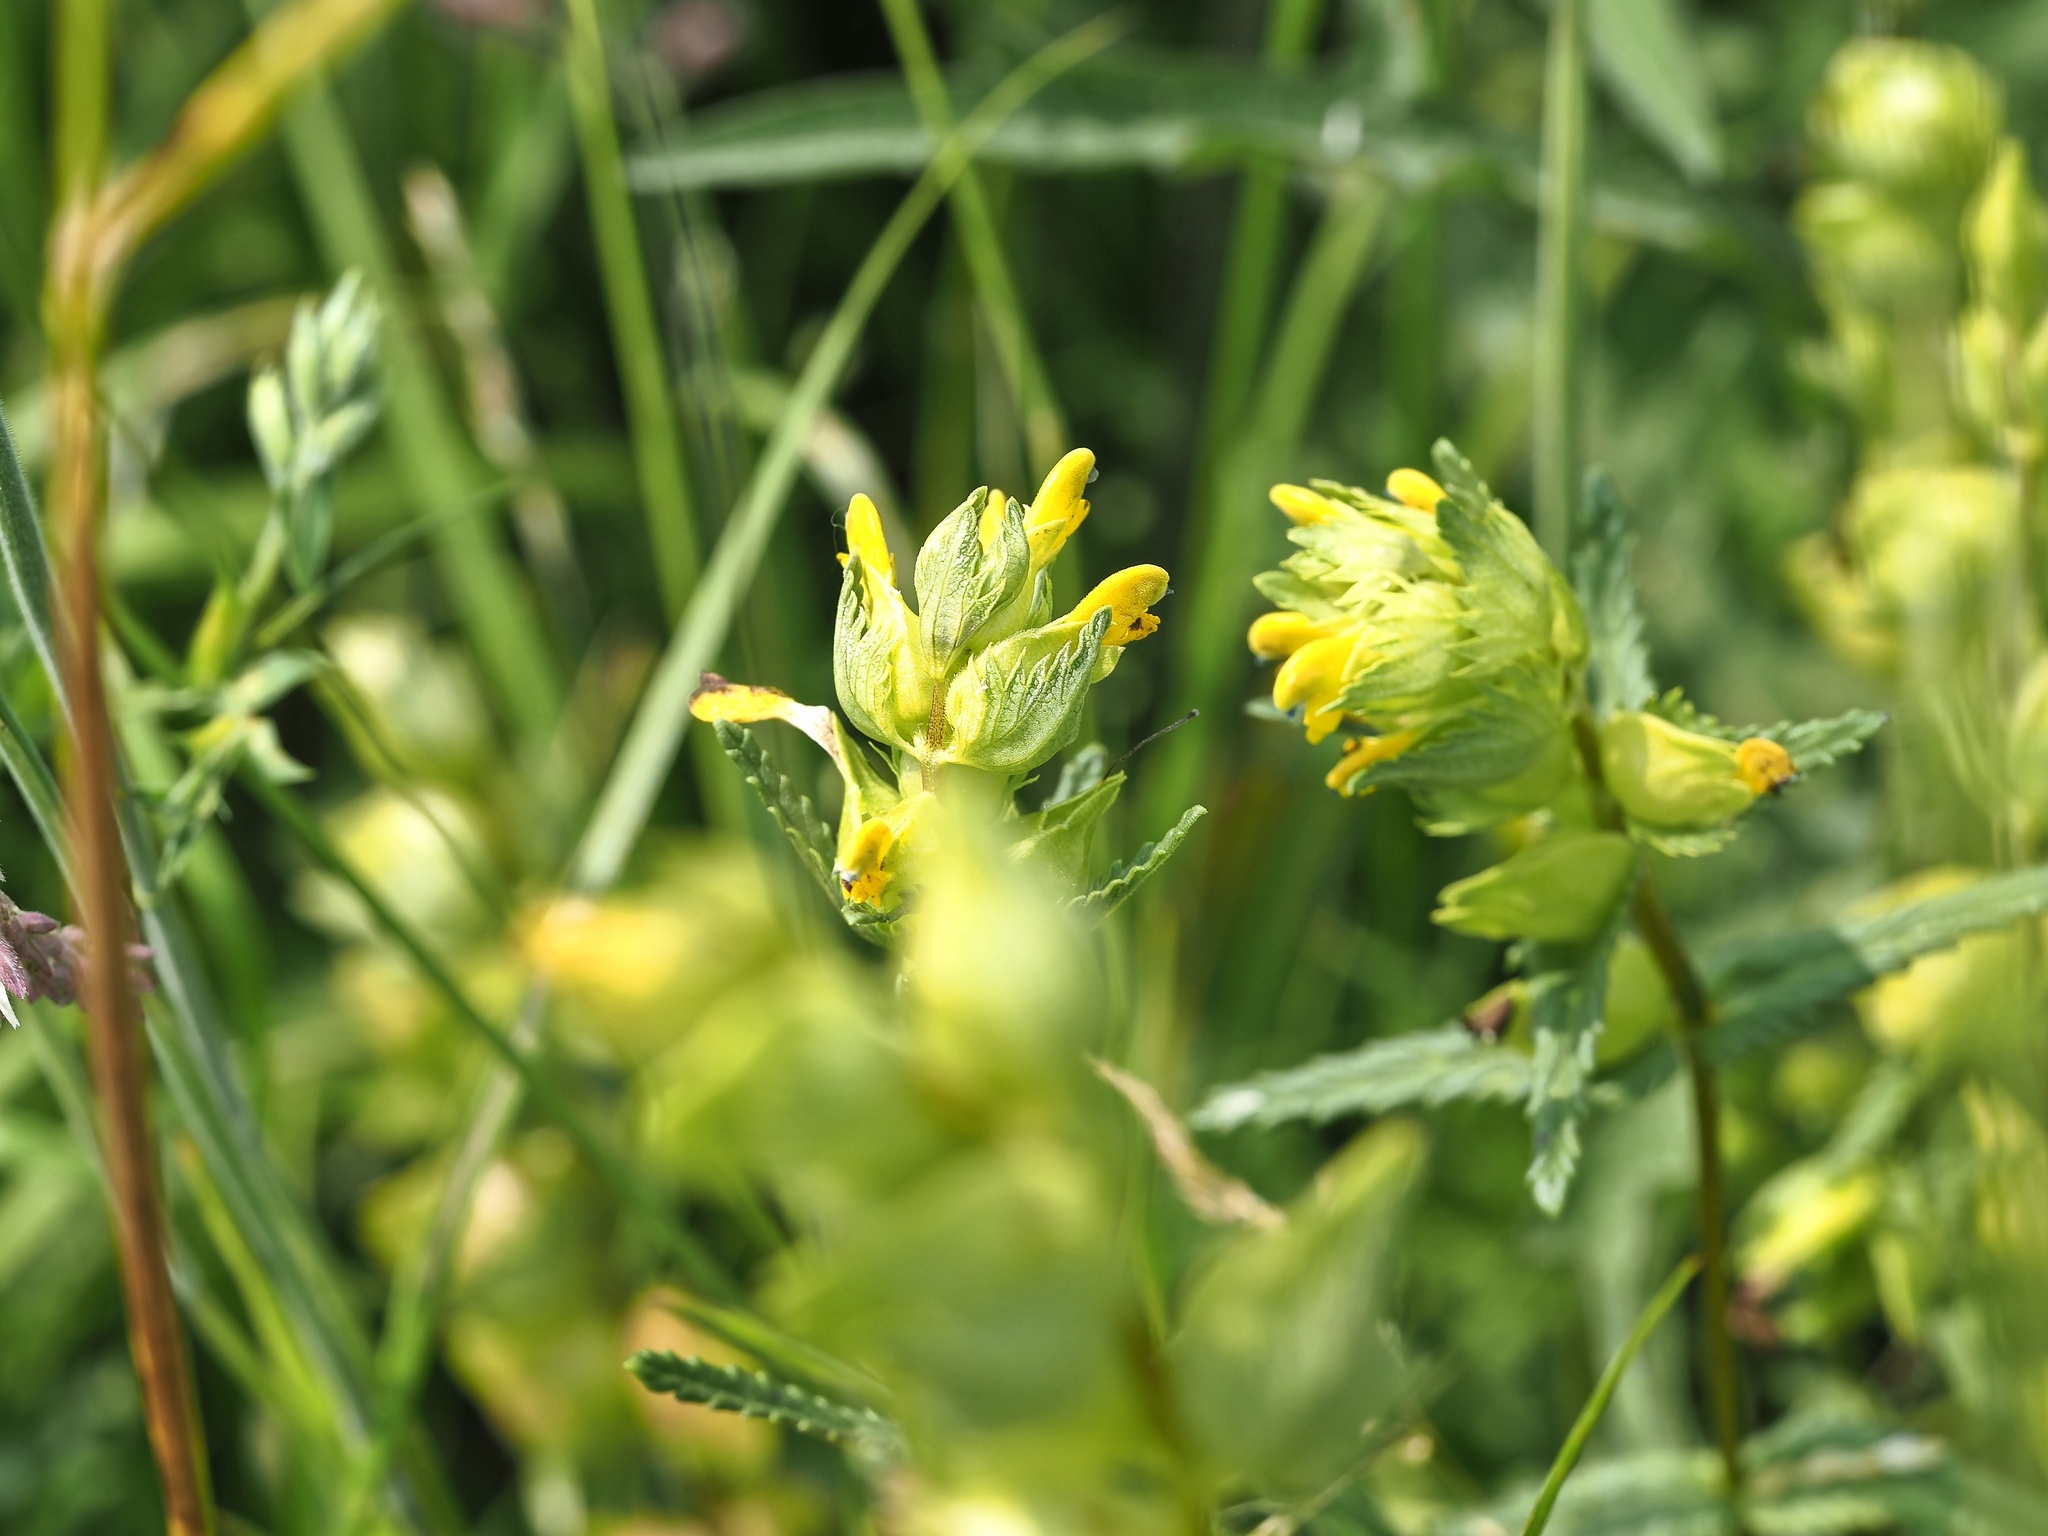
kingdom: Plantae
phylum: Tracheophyta
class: Magnoliopsida
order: Lamiales
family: Orobanchaceae
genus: Rhinanthus
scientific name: Rhinanthus minor
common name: Yellow-rattle
